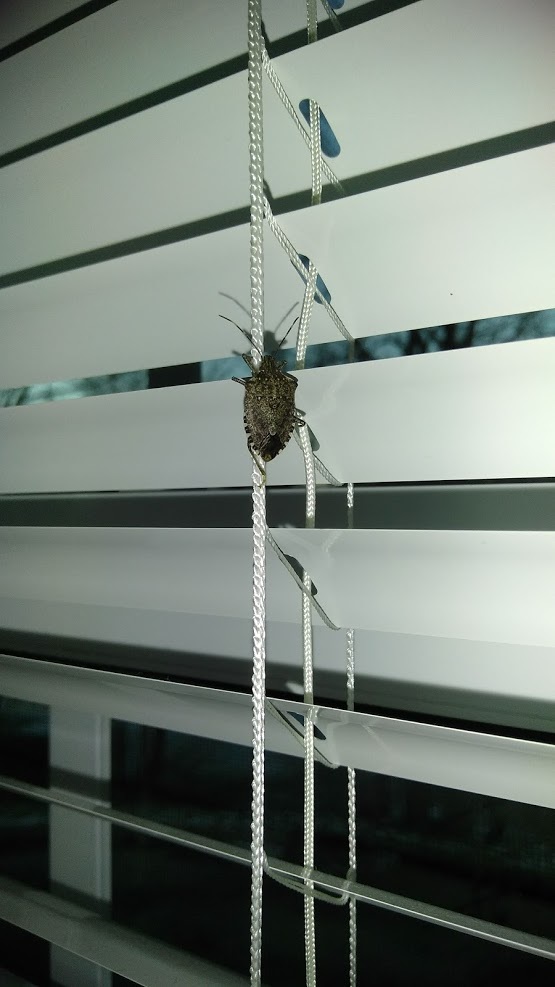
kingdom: Animalia
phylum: Arthropoda
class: Insecta
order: Hemiptera
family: Pentatomidae
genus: Halyomorpha
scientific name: Halyomorpha halys
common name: Brown marmorated stink bug
